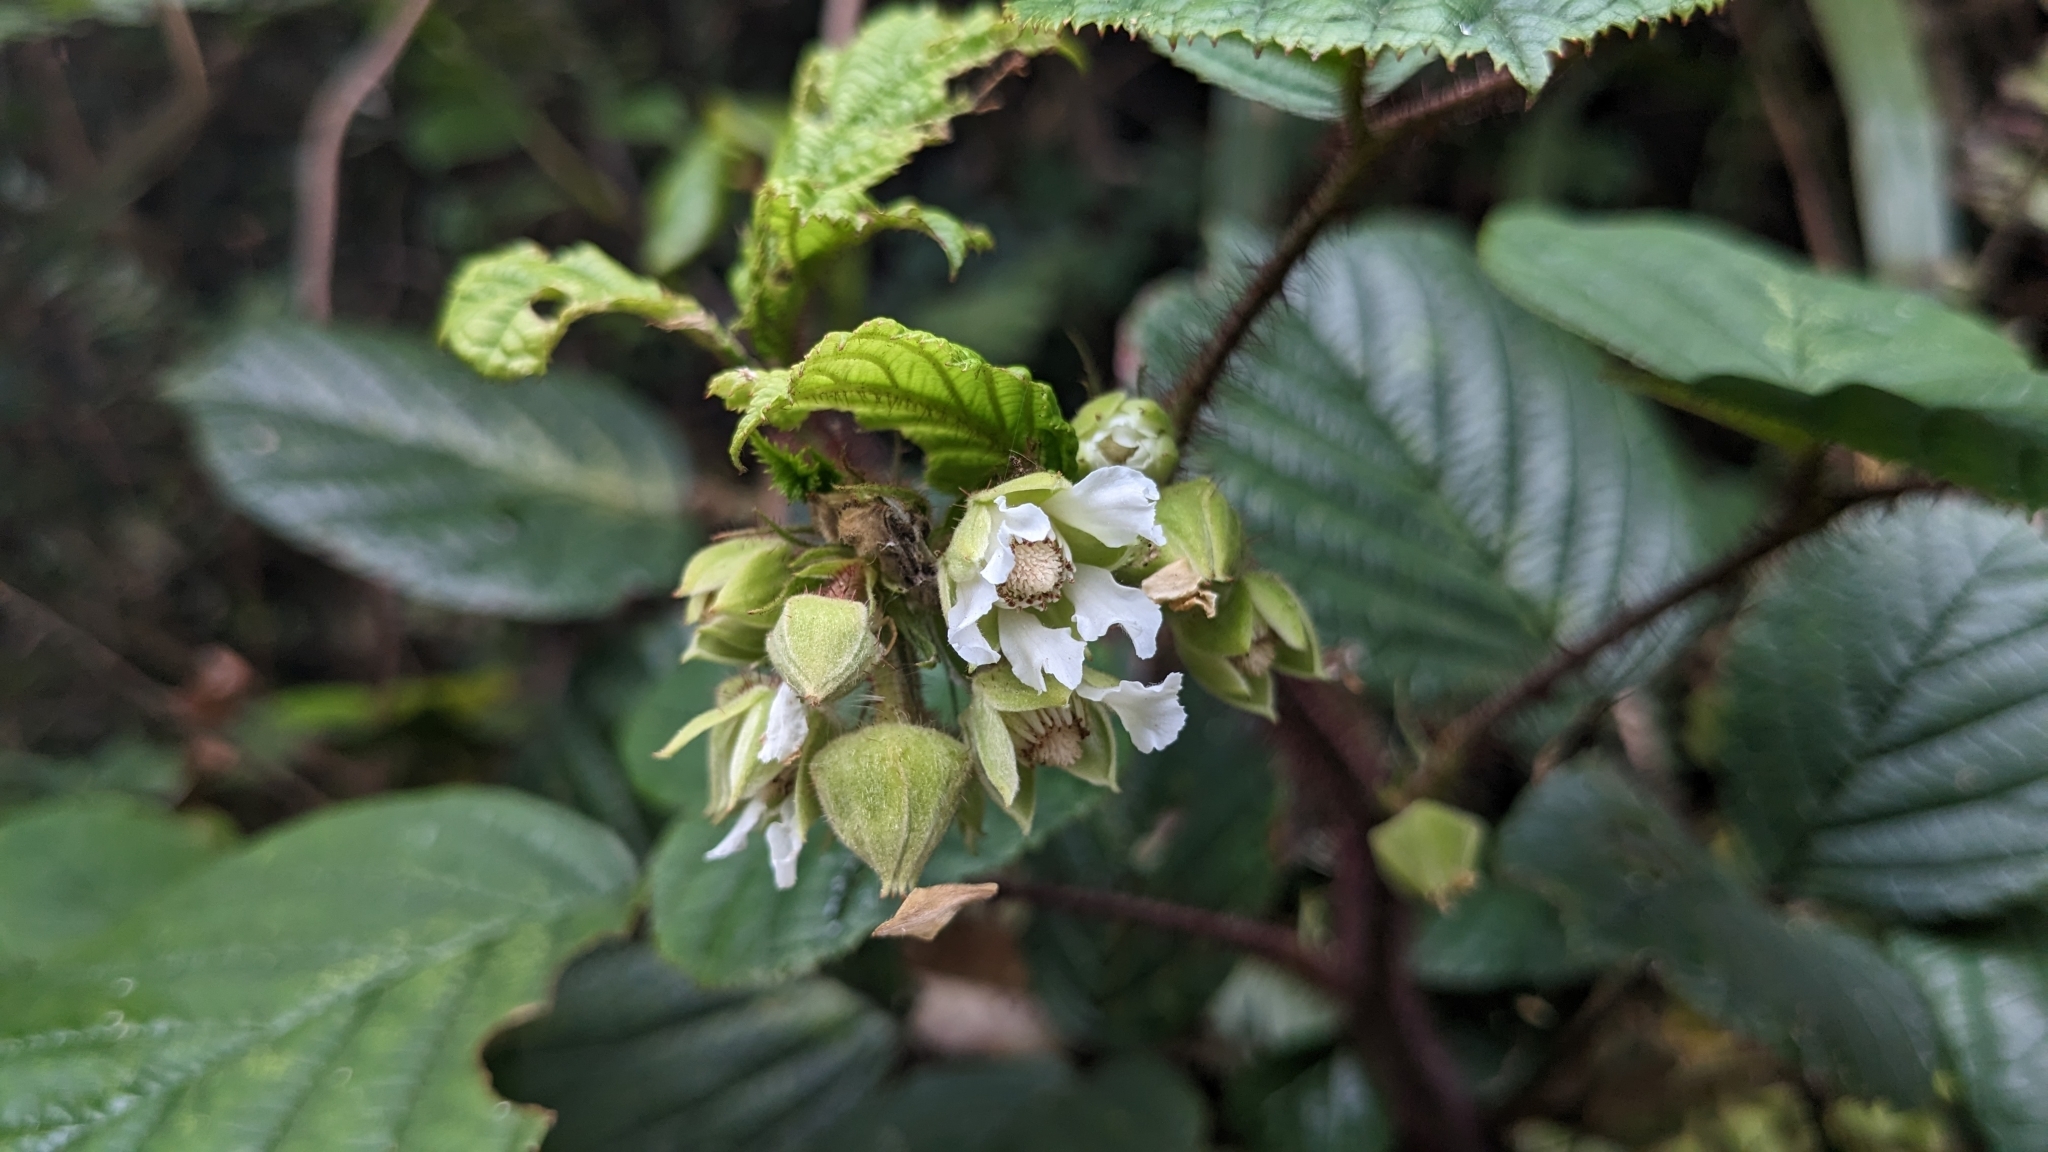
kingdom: Plantae
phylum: Tracheophyta
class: Magnoliopsida
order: Rosales
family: Rosaceae
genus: Rubus
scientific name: Rubus ellipticus
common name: Cheeseberry
